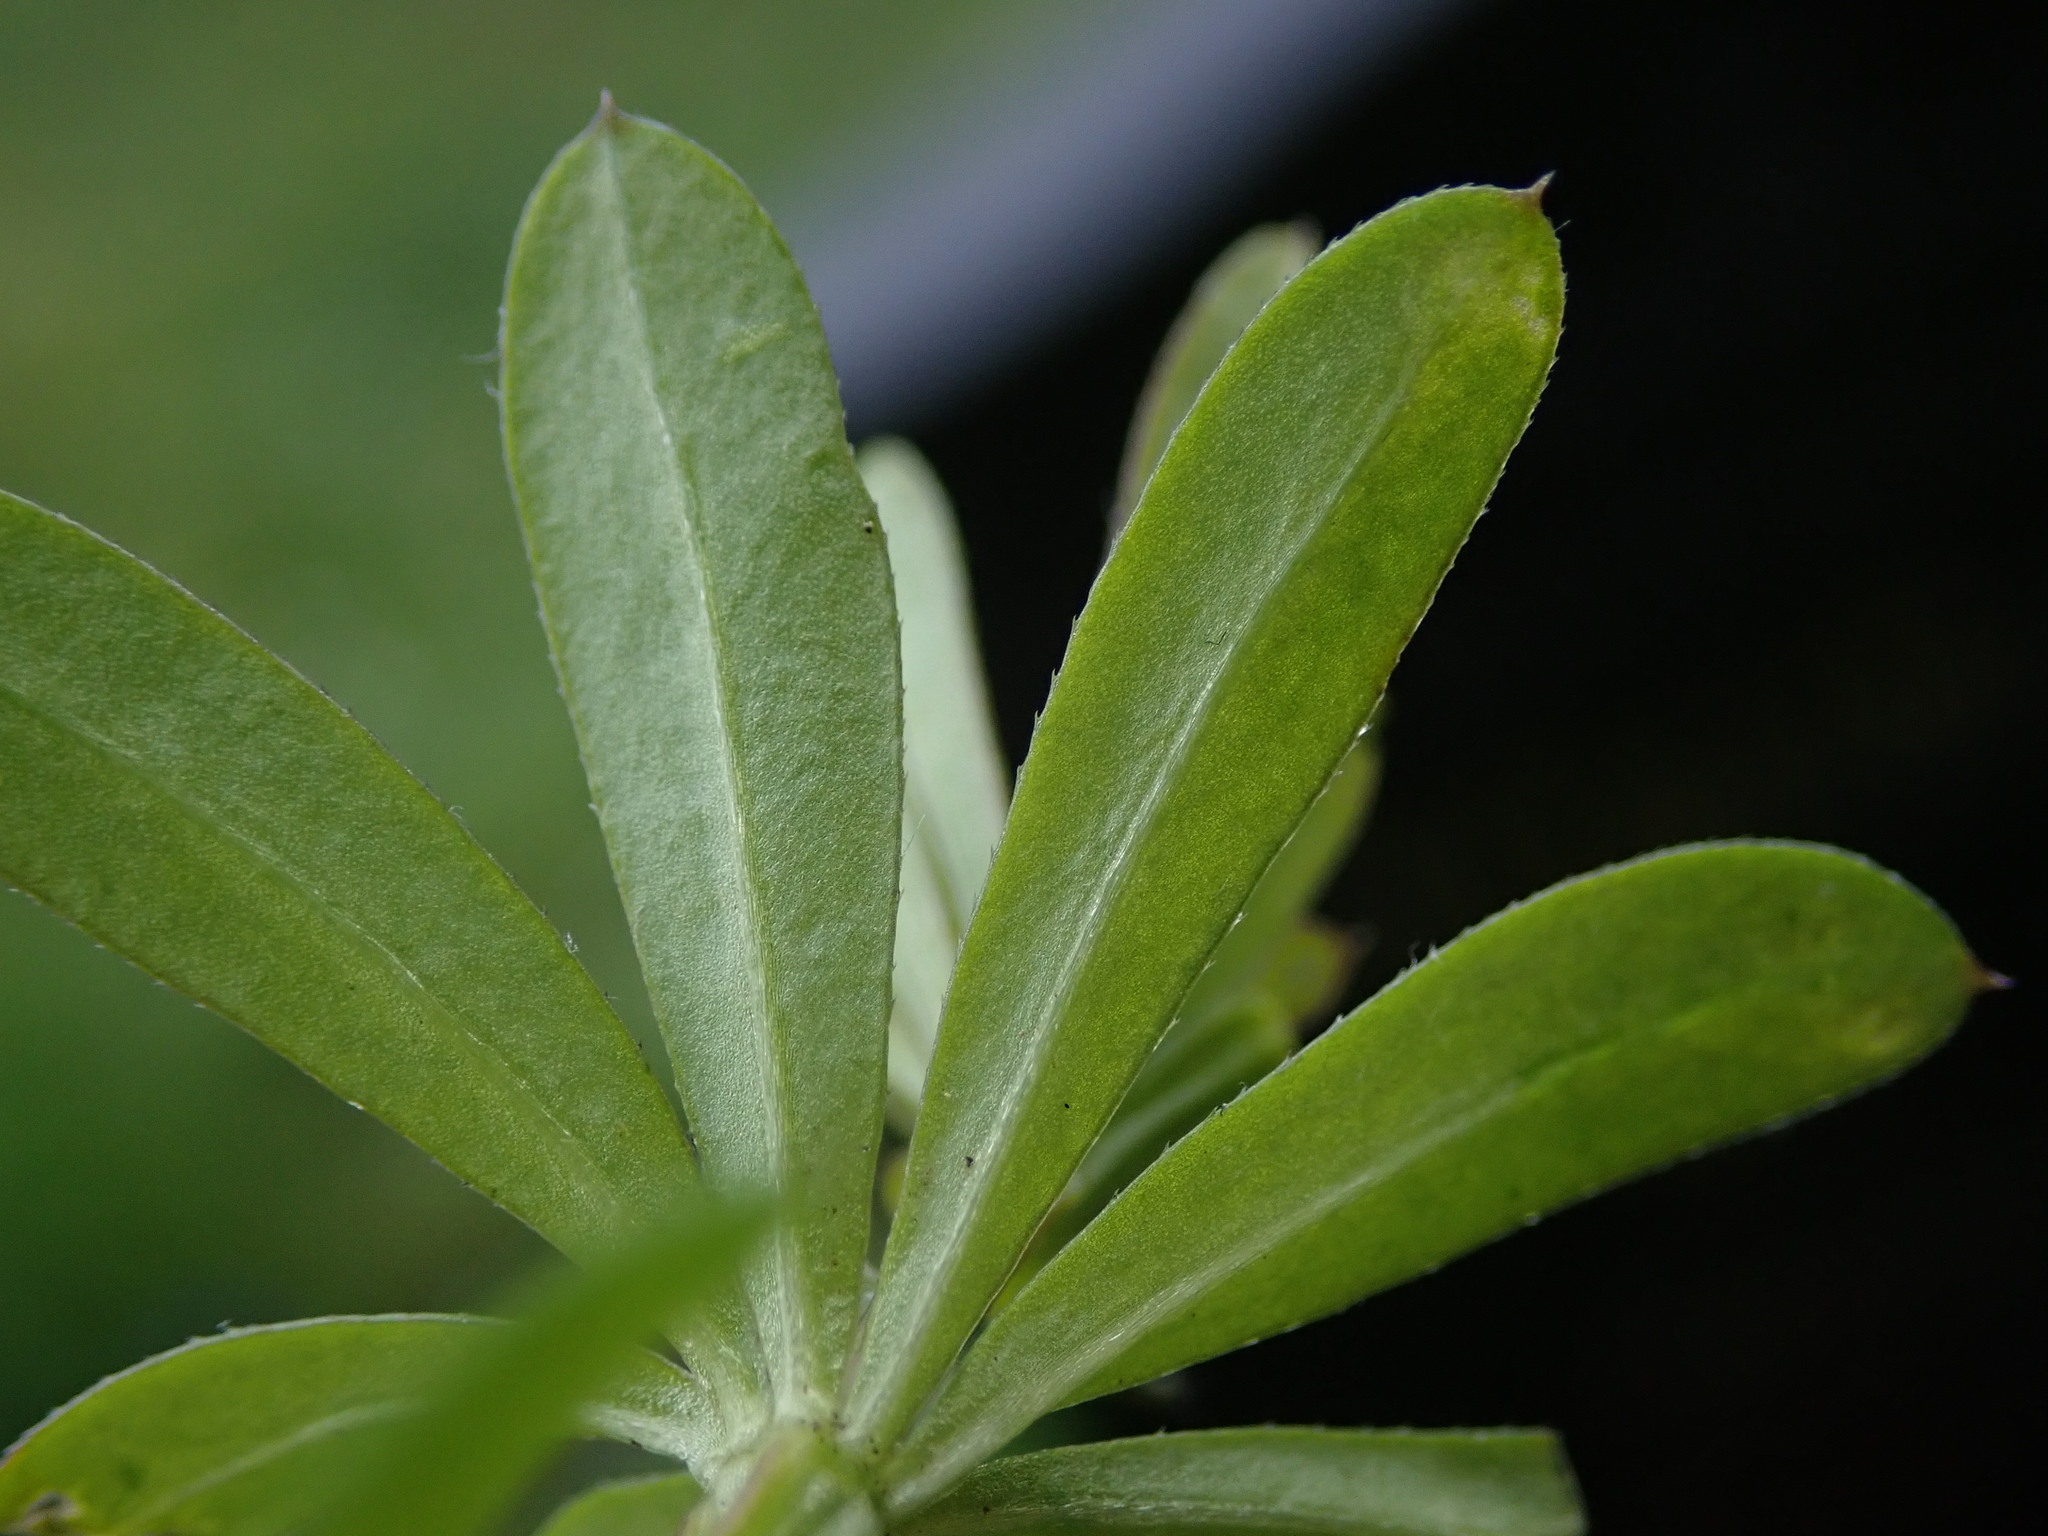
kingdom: Plantae
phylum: Tracheophyta
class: Magnoliopsida
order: Gentianales
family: Rubiaceae
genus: Galium
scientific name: Galium album
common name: White bedstraw
